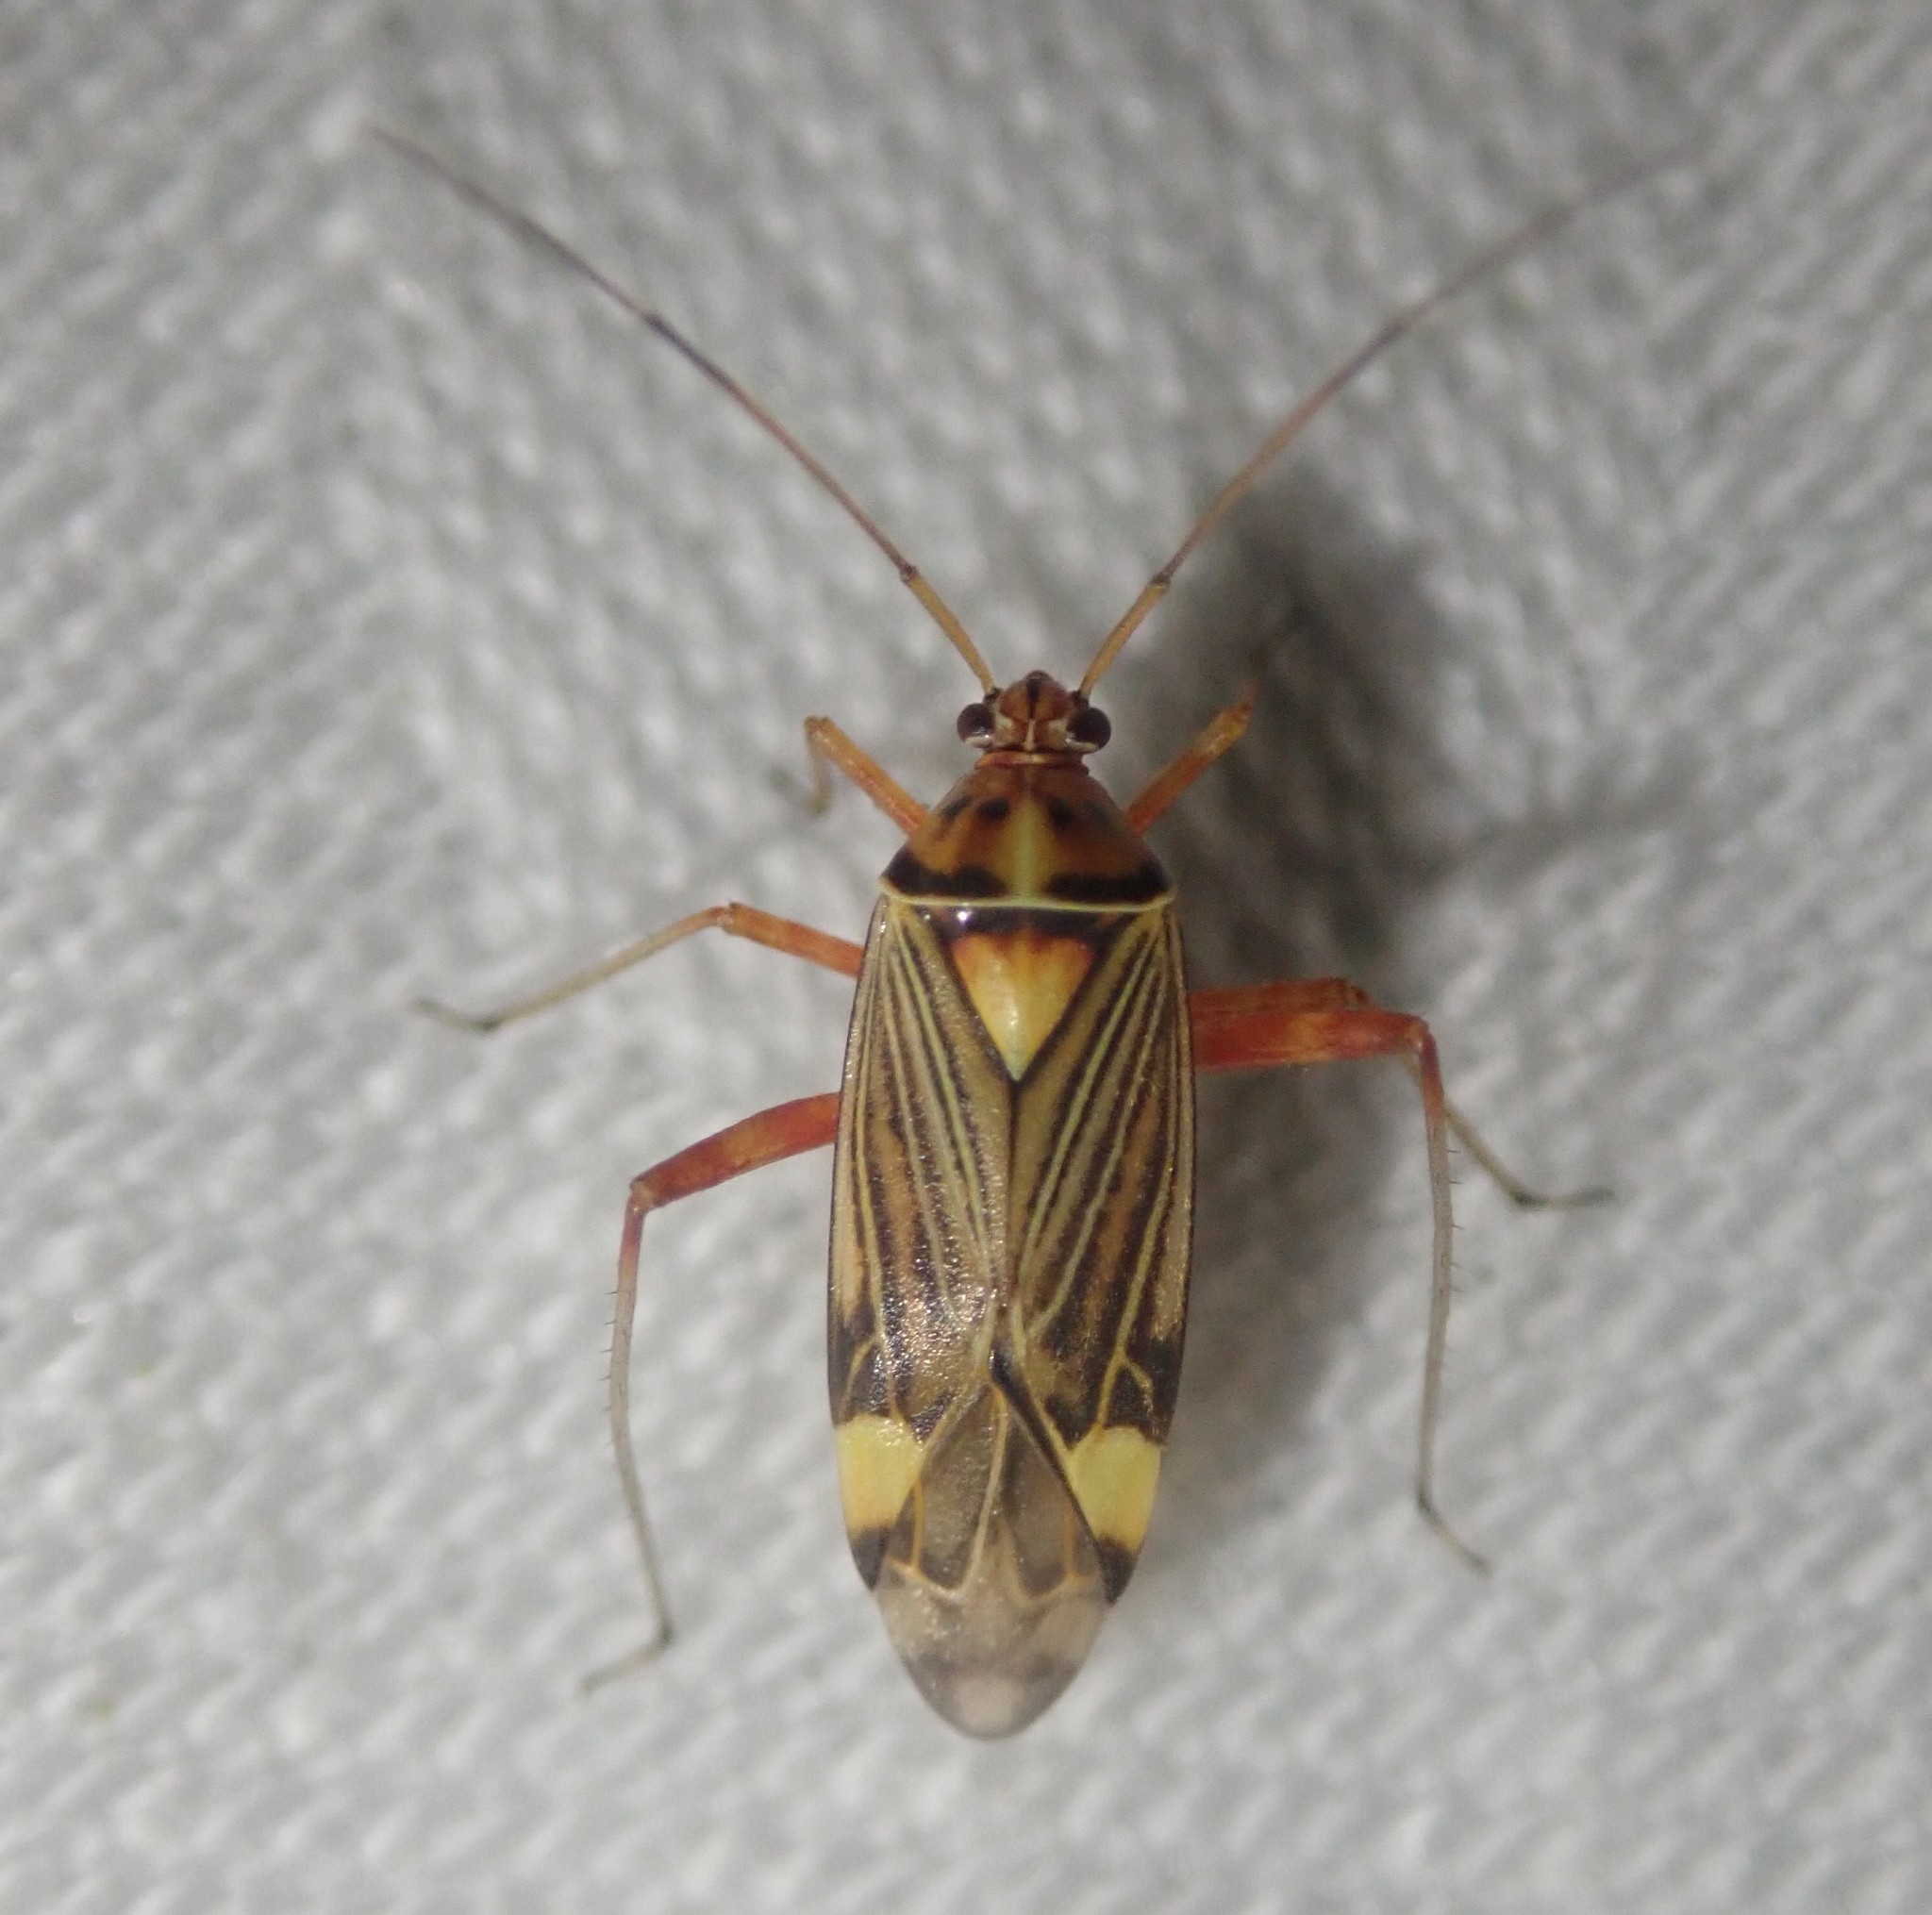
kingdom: Animalia
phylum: Arthropoda
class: Insecta
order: Hemiptera
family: Miridae
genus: Rhabdomiris
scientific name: Rhabdomiris striatellus
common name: Plant bug
